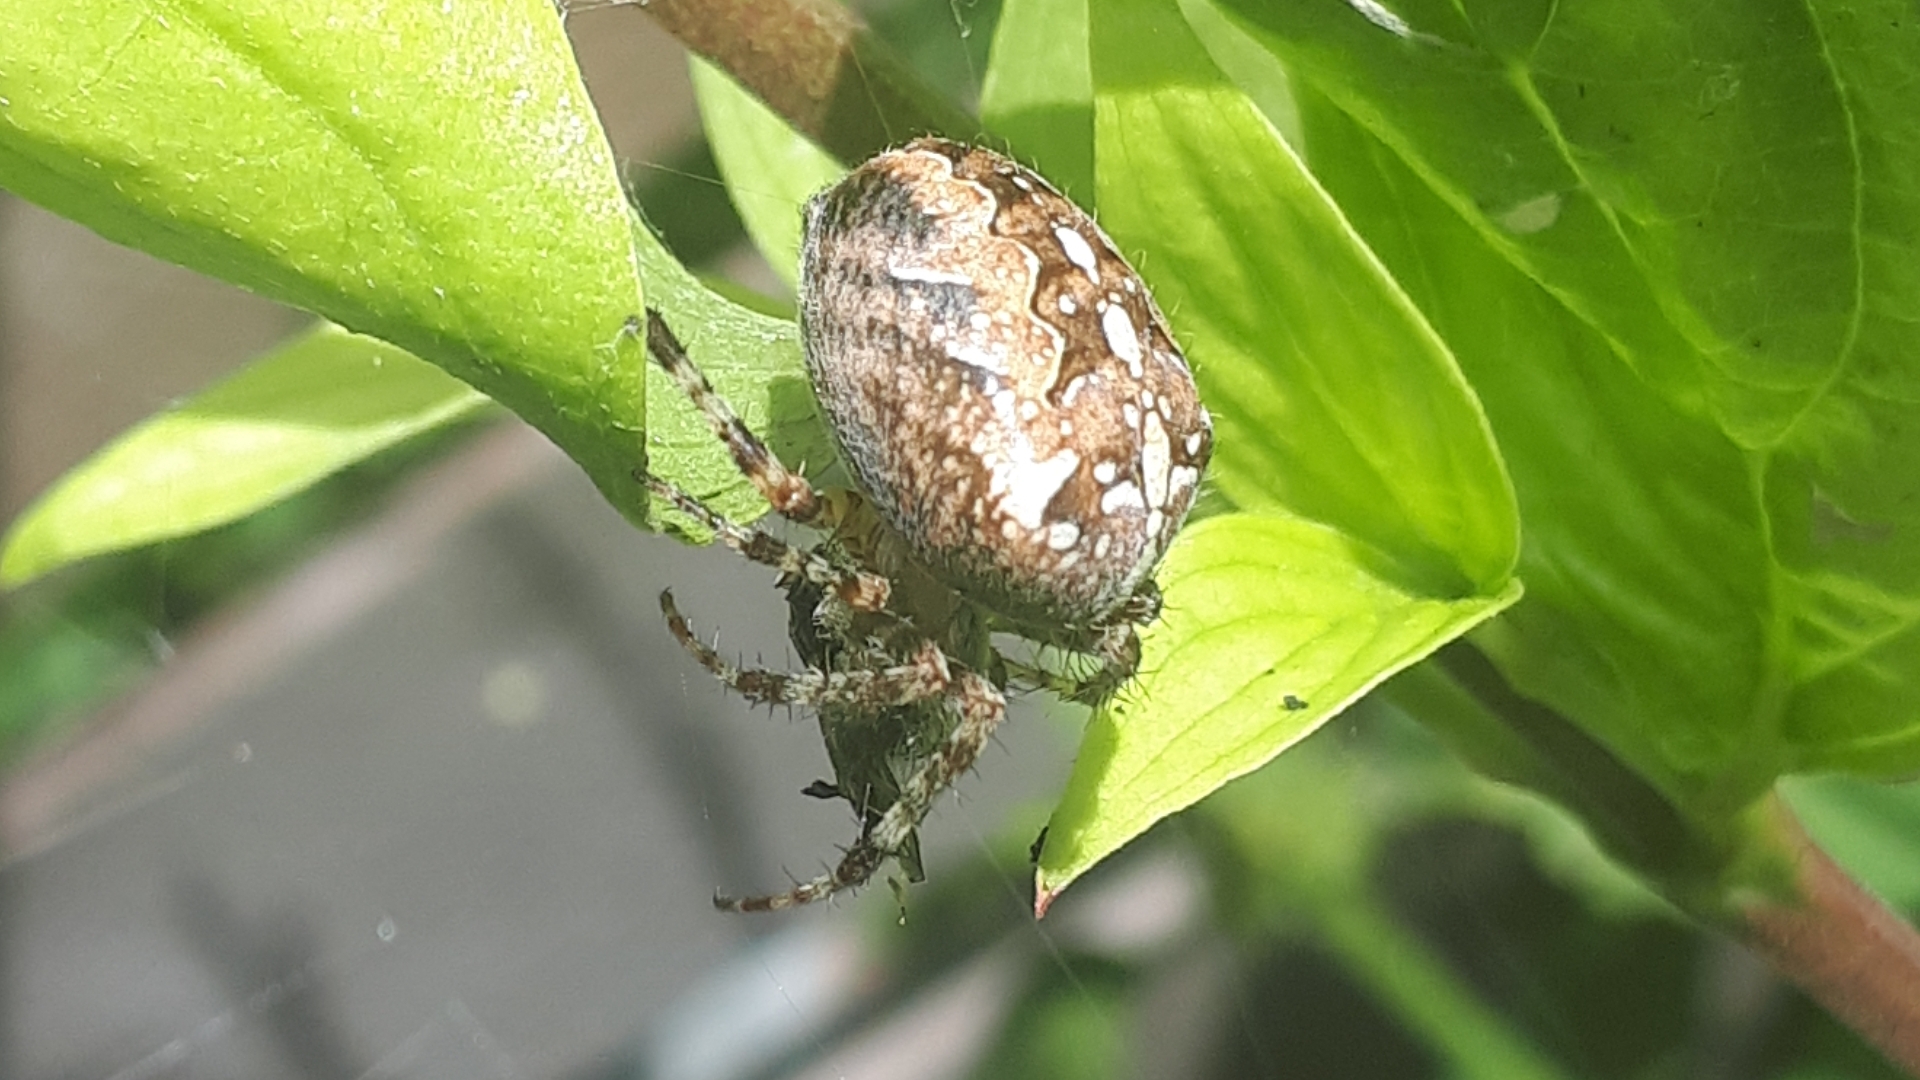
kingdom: Animalia
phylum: Arthropoda
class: Arachnida
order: Araneae
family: Araneidae
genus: Araneus
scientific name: Araneus diadematus
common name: Cross orbweaver
